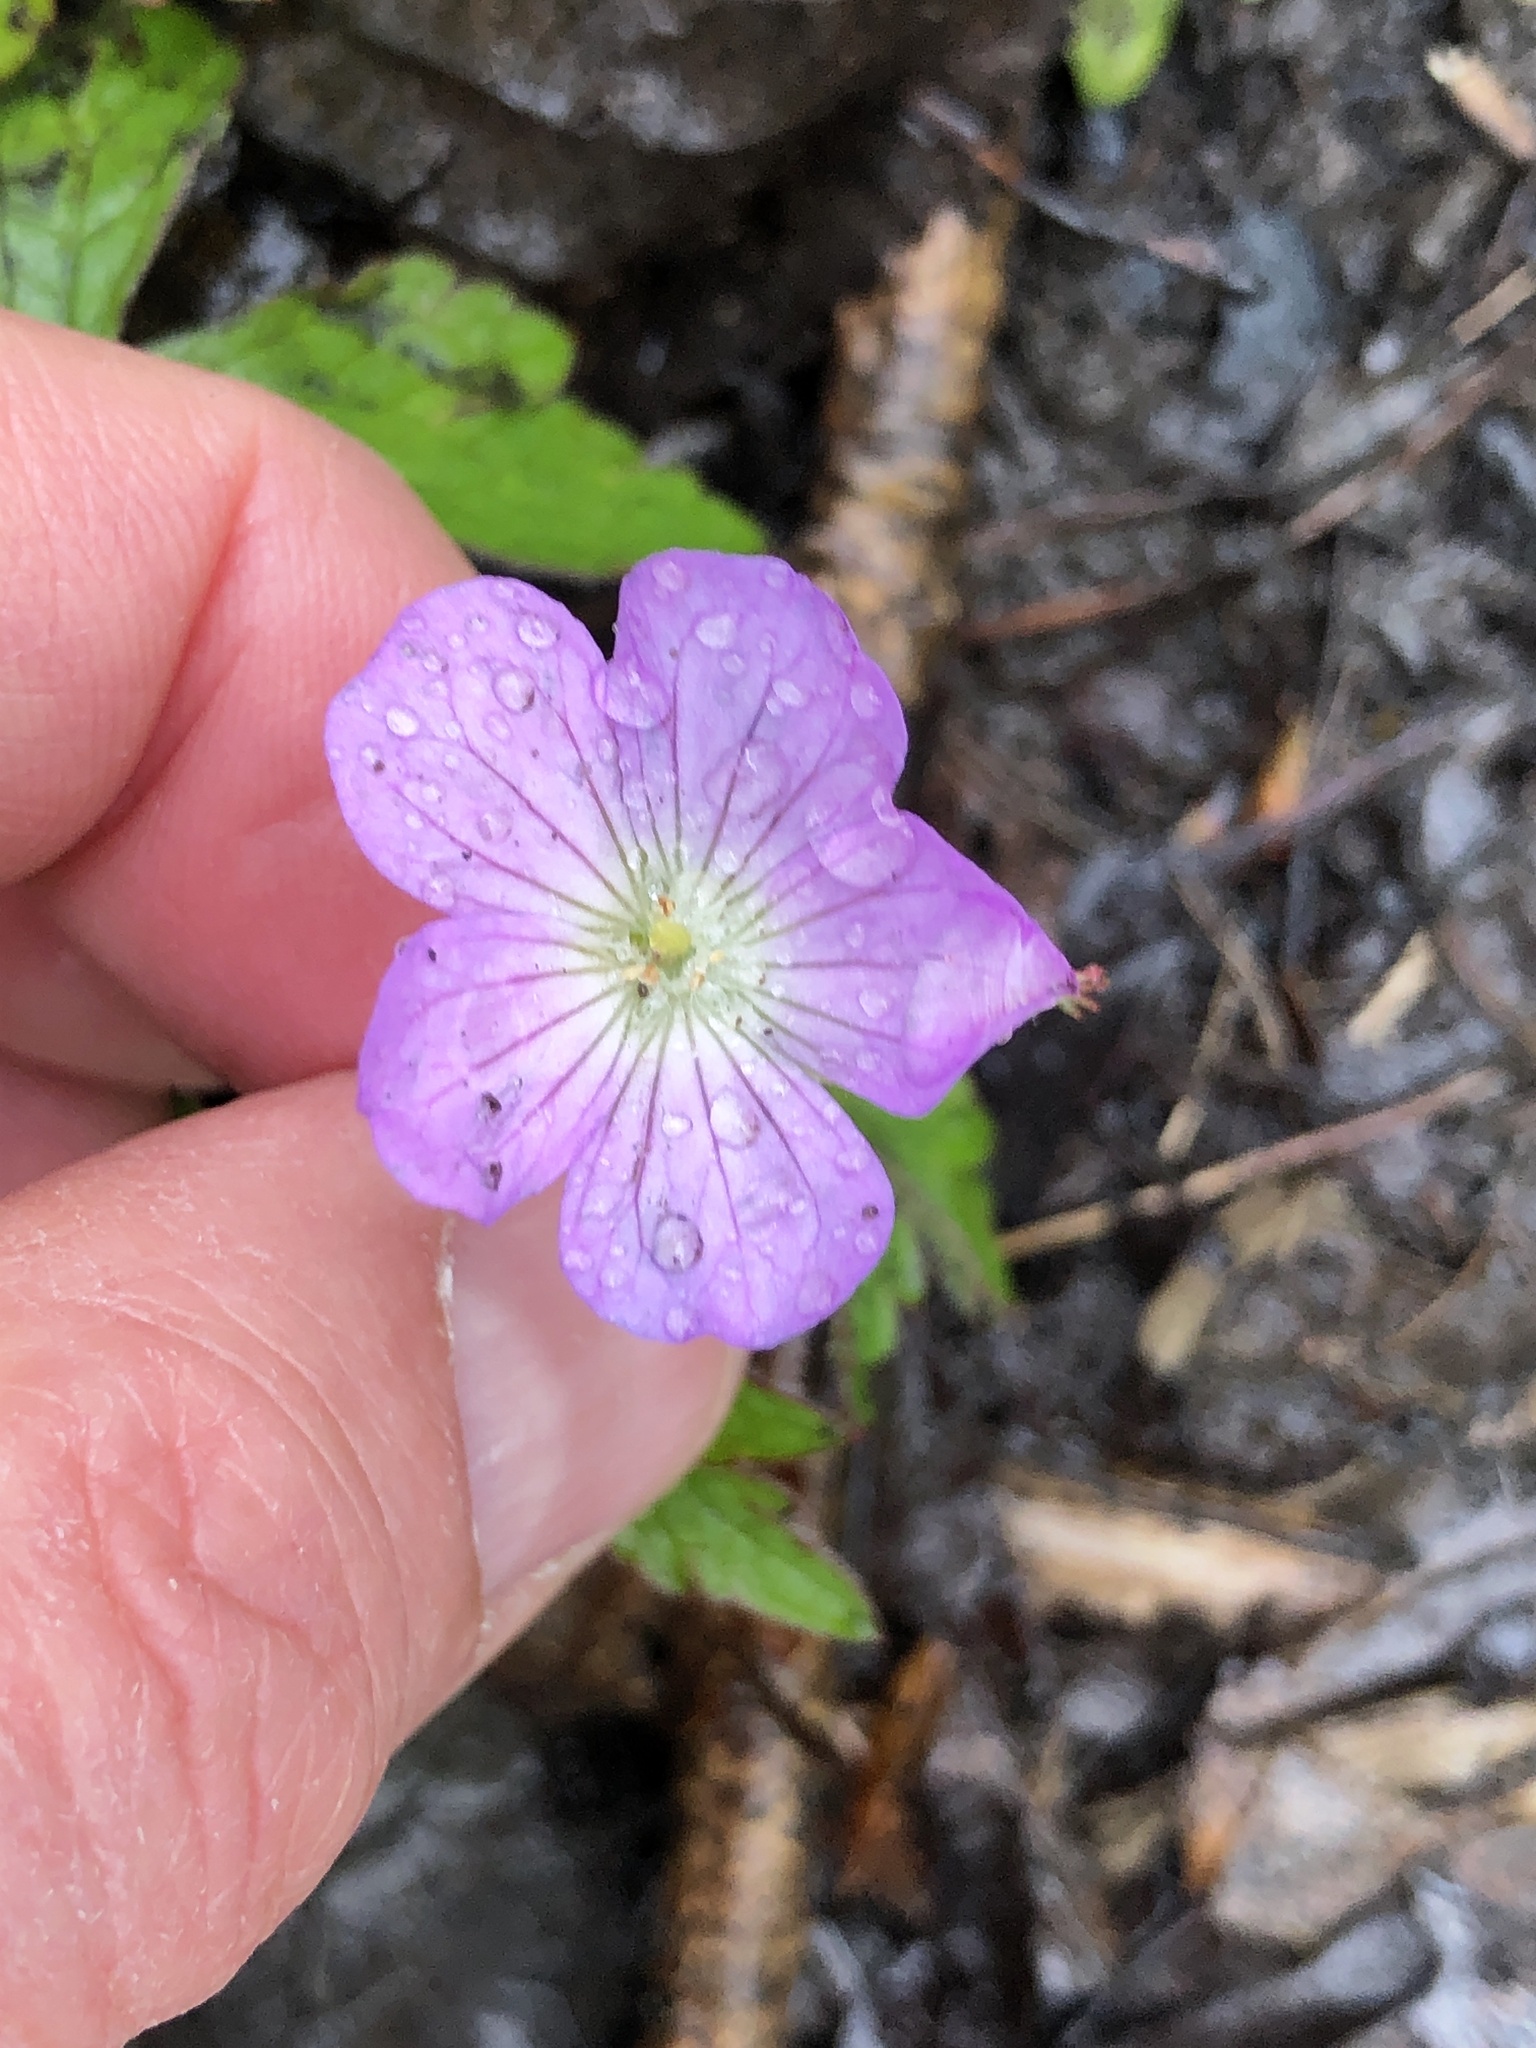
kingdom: Plantae
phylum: Tracheophyta
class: Magnoliopsida
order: Geraniales
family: Geraniaceae
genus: Geranium
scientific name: Geranium maculatum
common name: Spotted geranium
